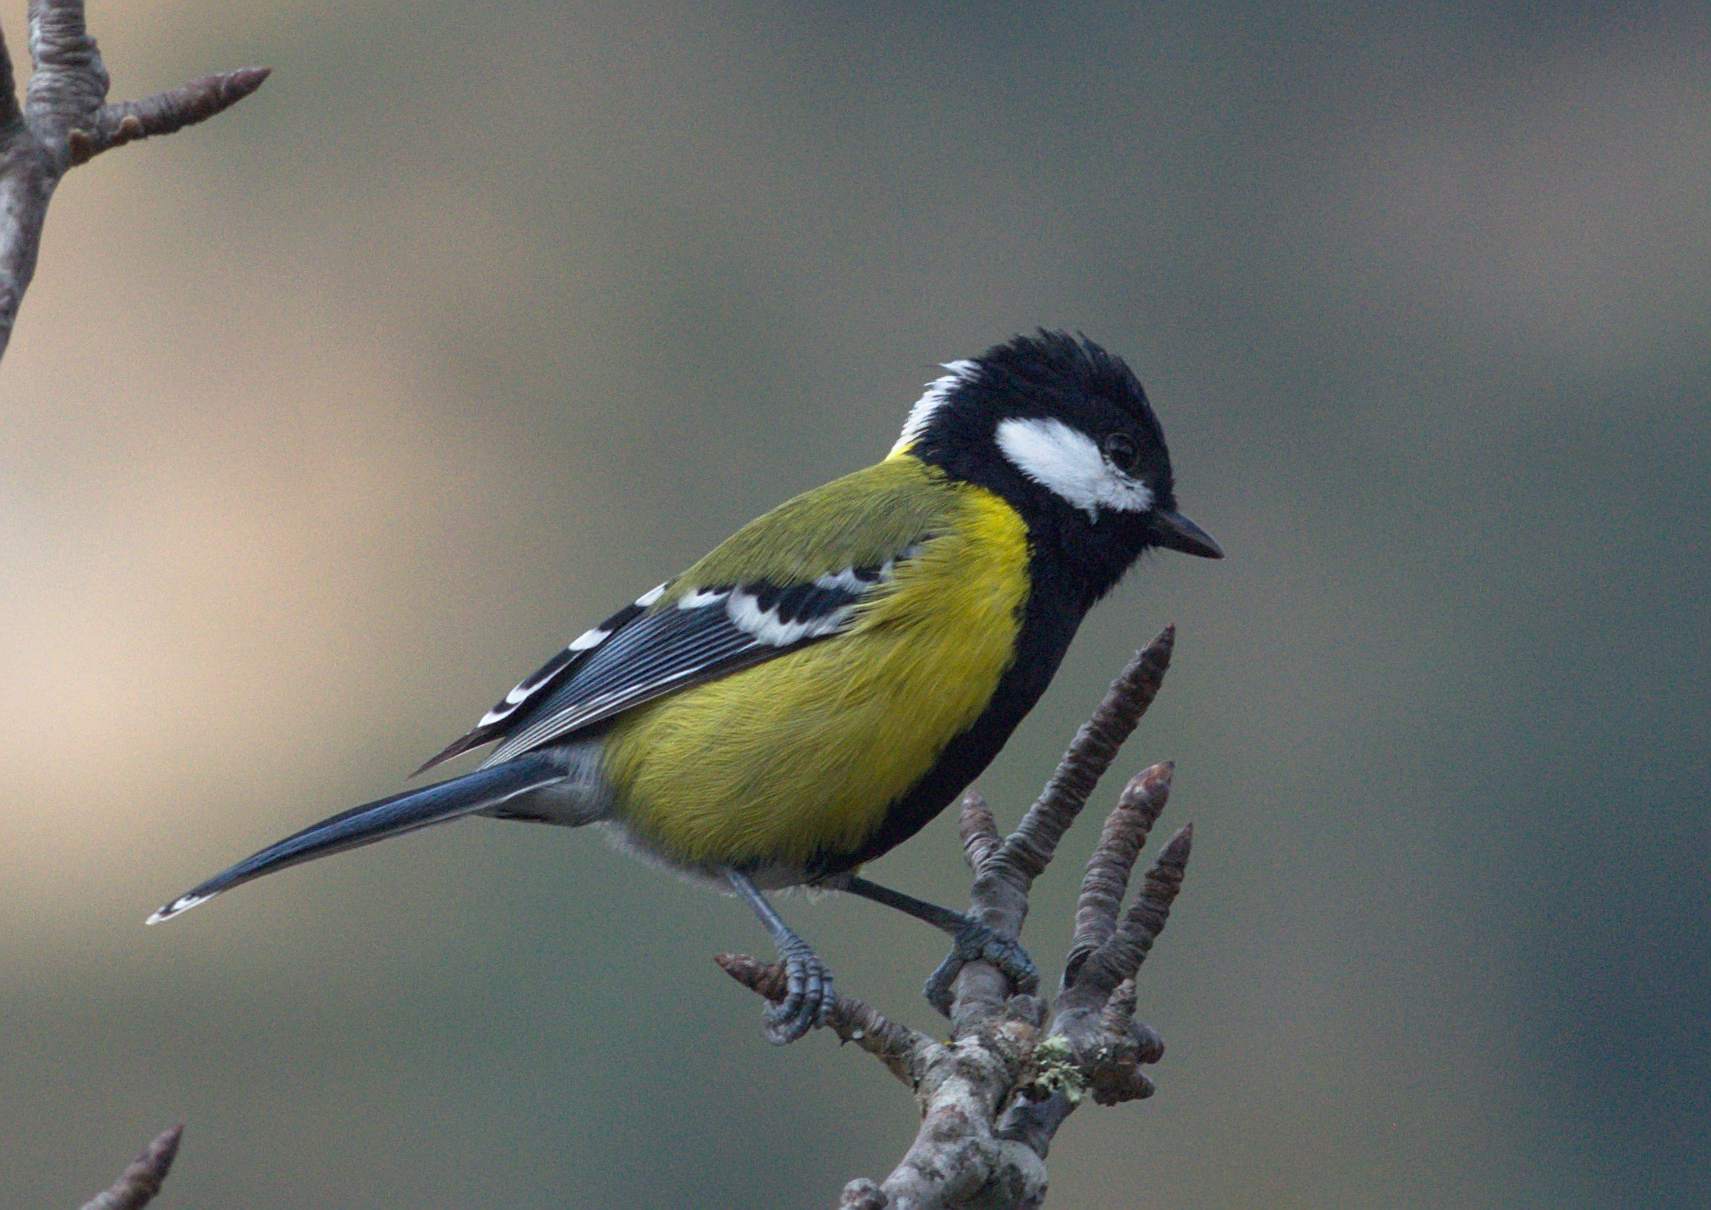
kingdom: Animalia
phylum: Chordata
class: Aves
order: Passeriformes
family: Paridae
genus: Parus
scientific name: Parus monticolus
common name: Green-backed tit
